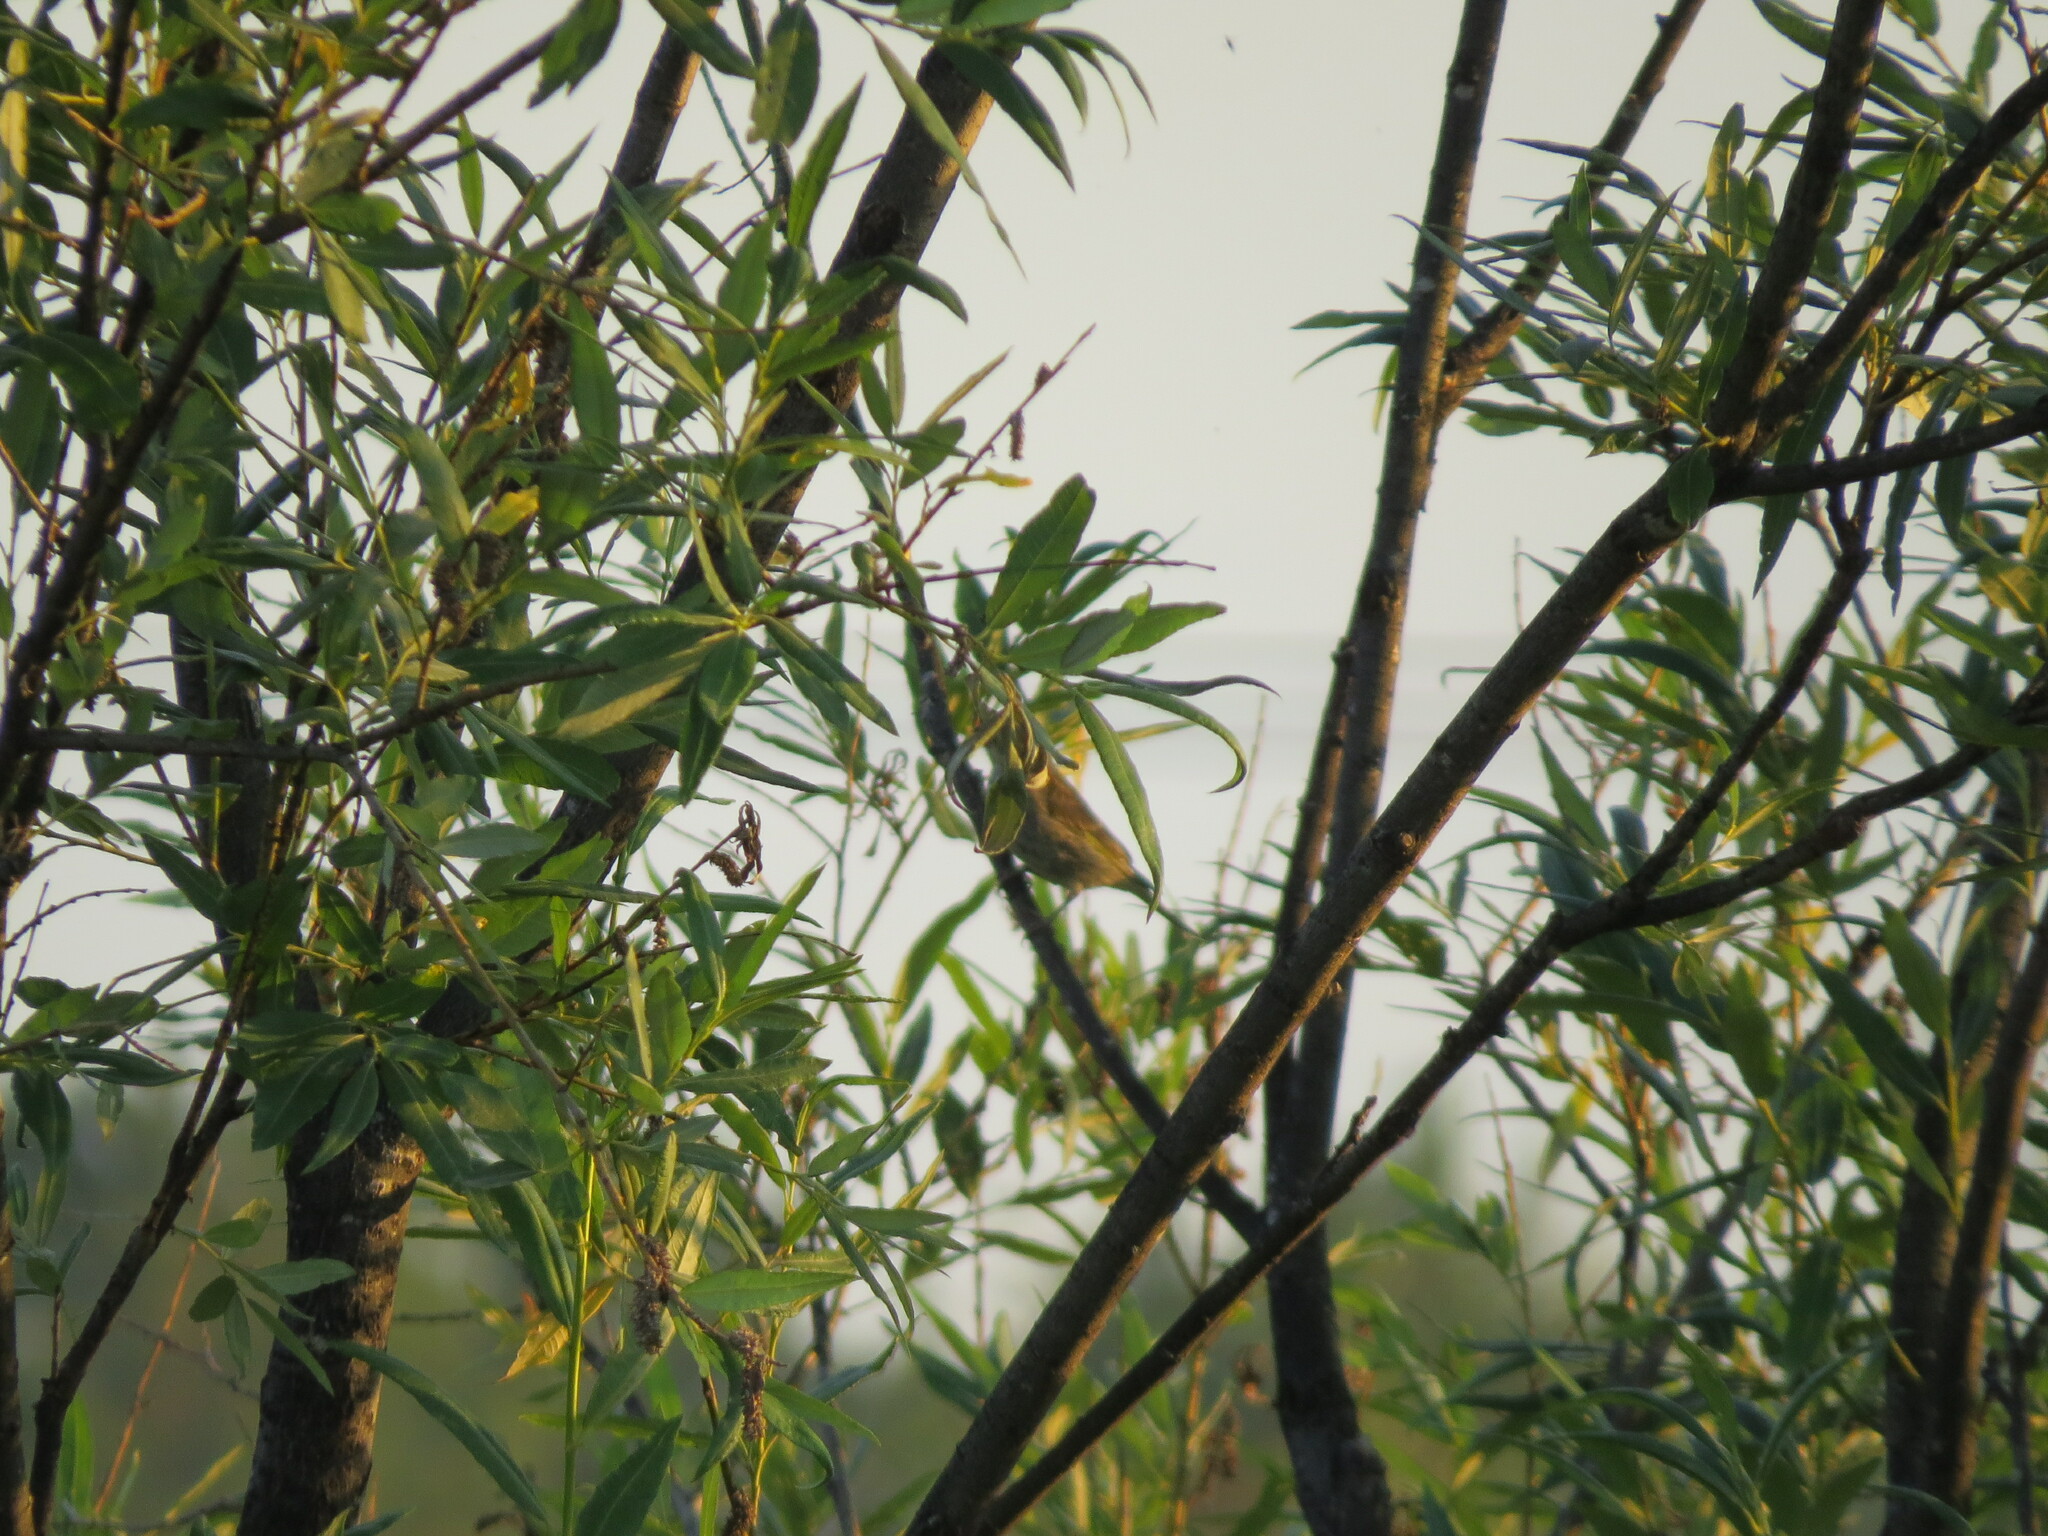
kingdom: Plantae
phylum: Tracheophyta
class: Liliopsida
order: Poales
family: Poaceae
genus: Chloris
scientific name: Chloris chloris
